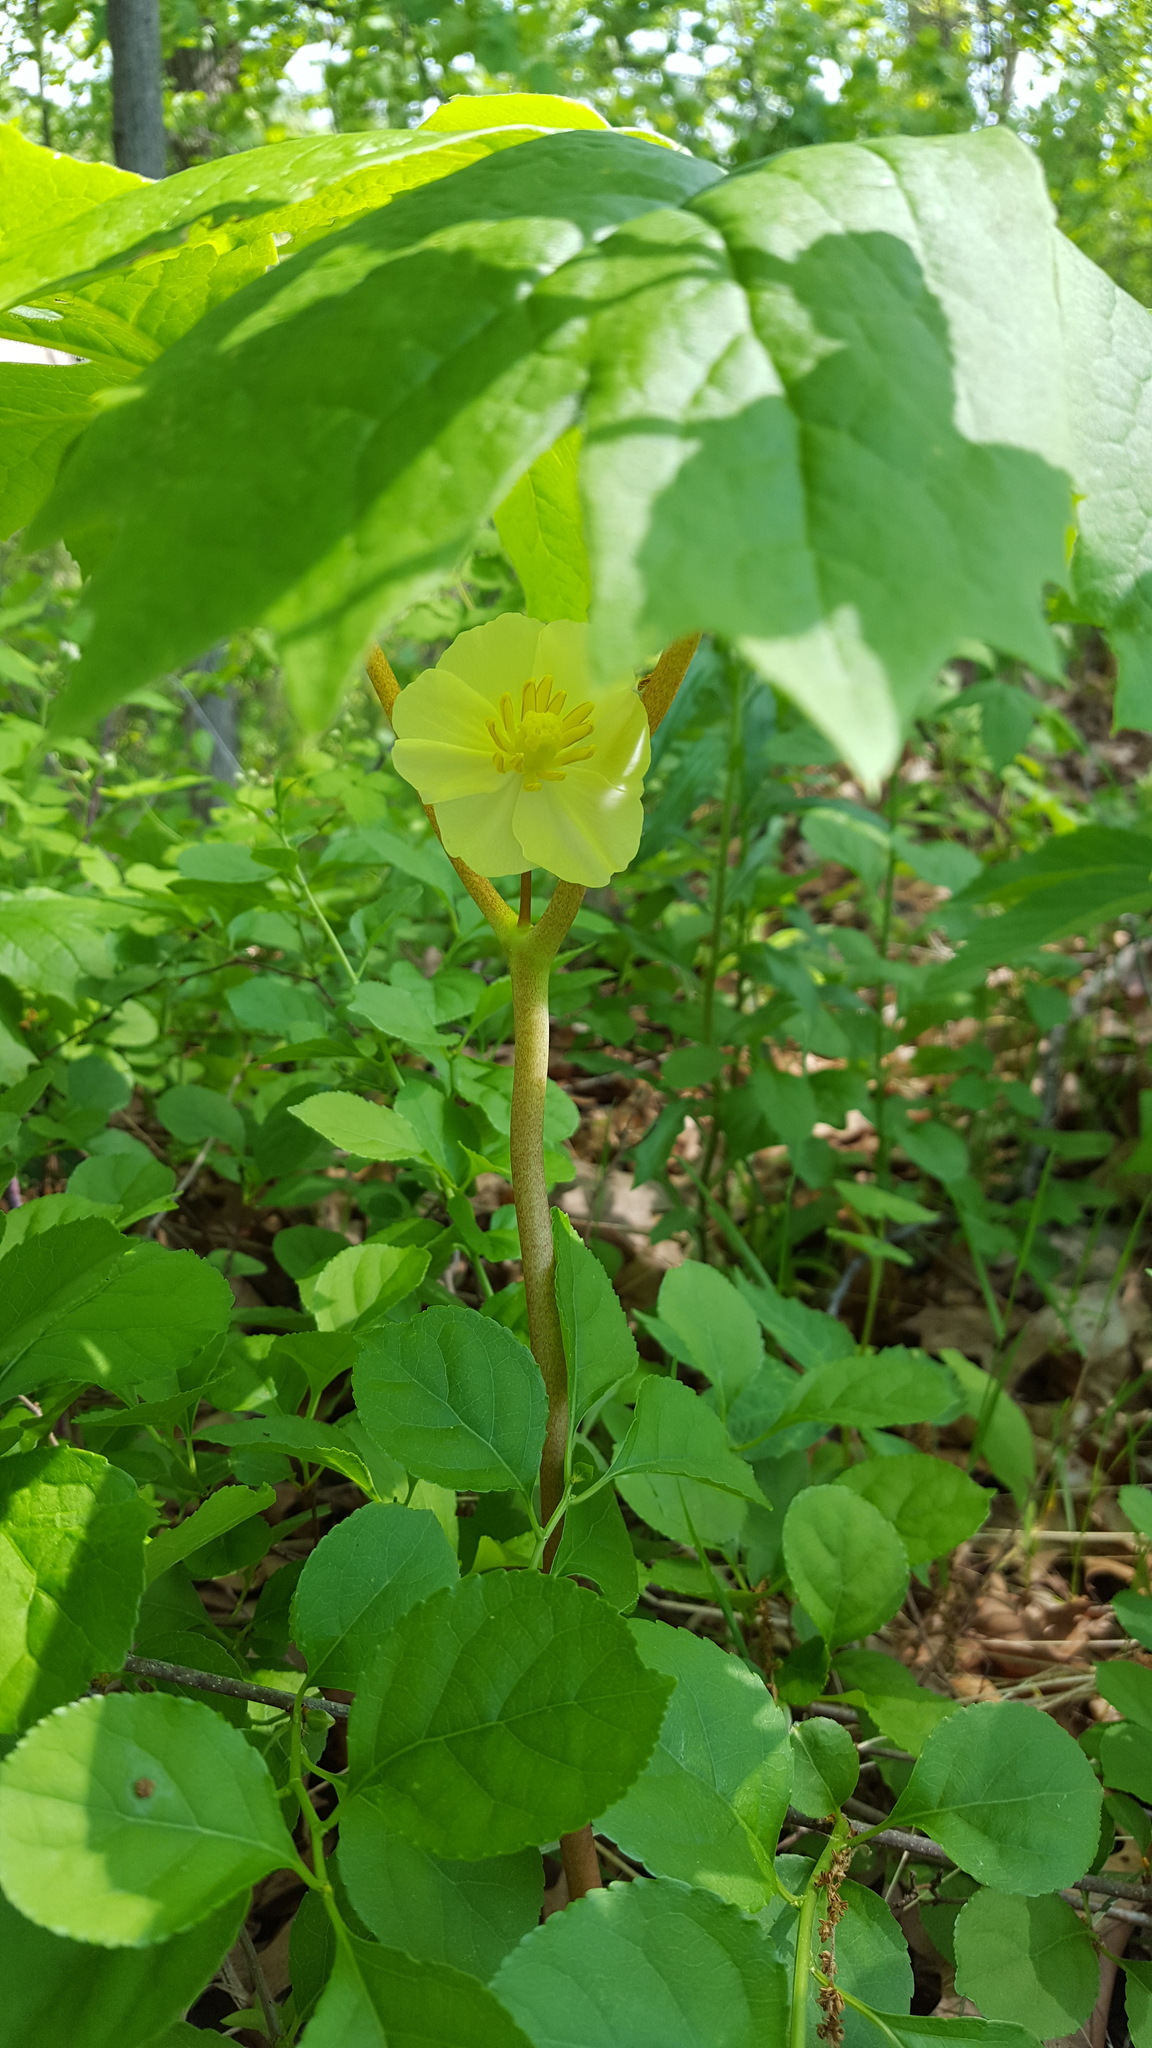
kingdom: Plantae
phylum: Tracheophyta
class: Magnoliopsida
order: Ranunculales
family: Berberidaceae
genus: Podophyllum
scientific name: Podophyllum peltatum
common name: Wild mandrake
